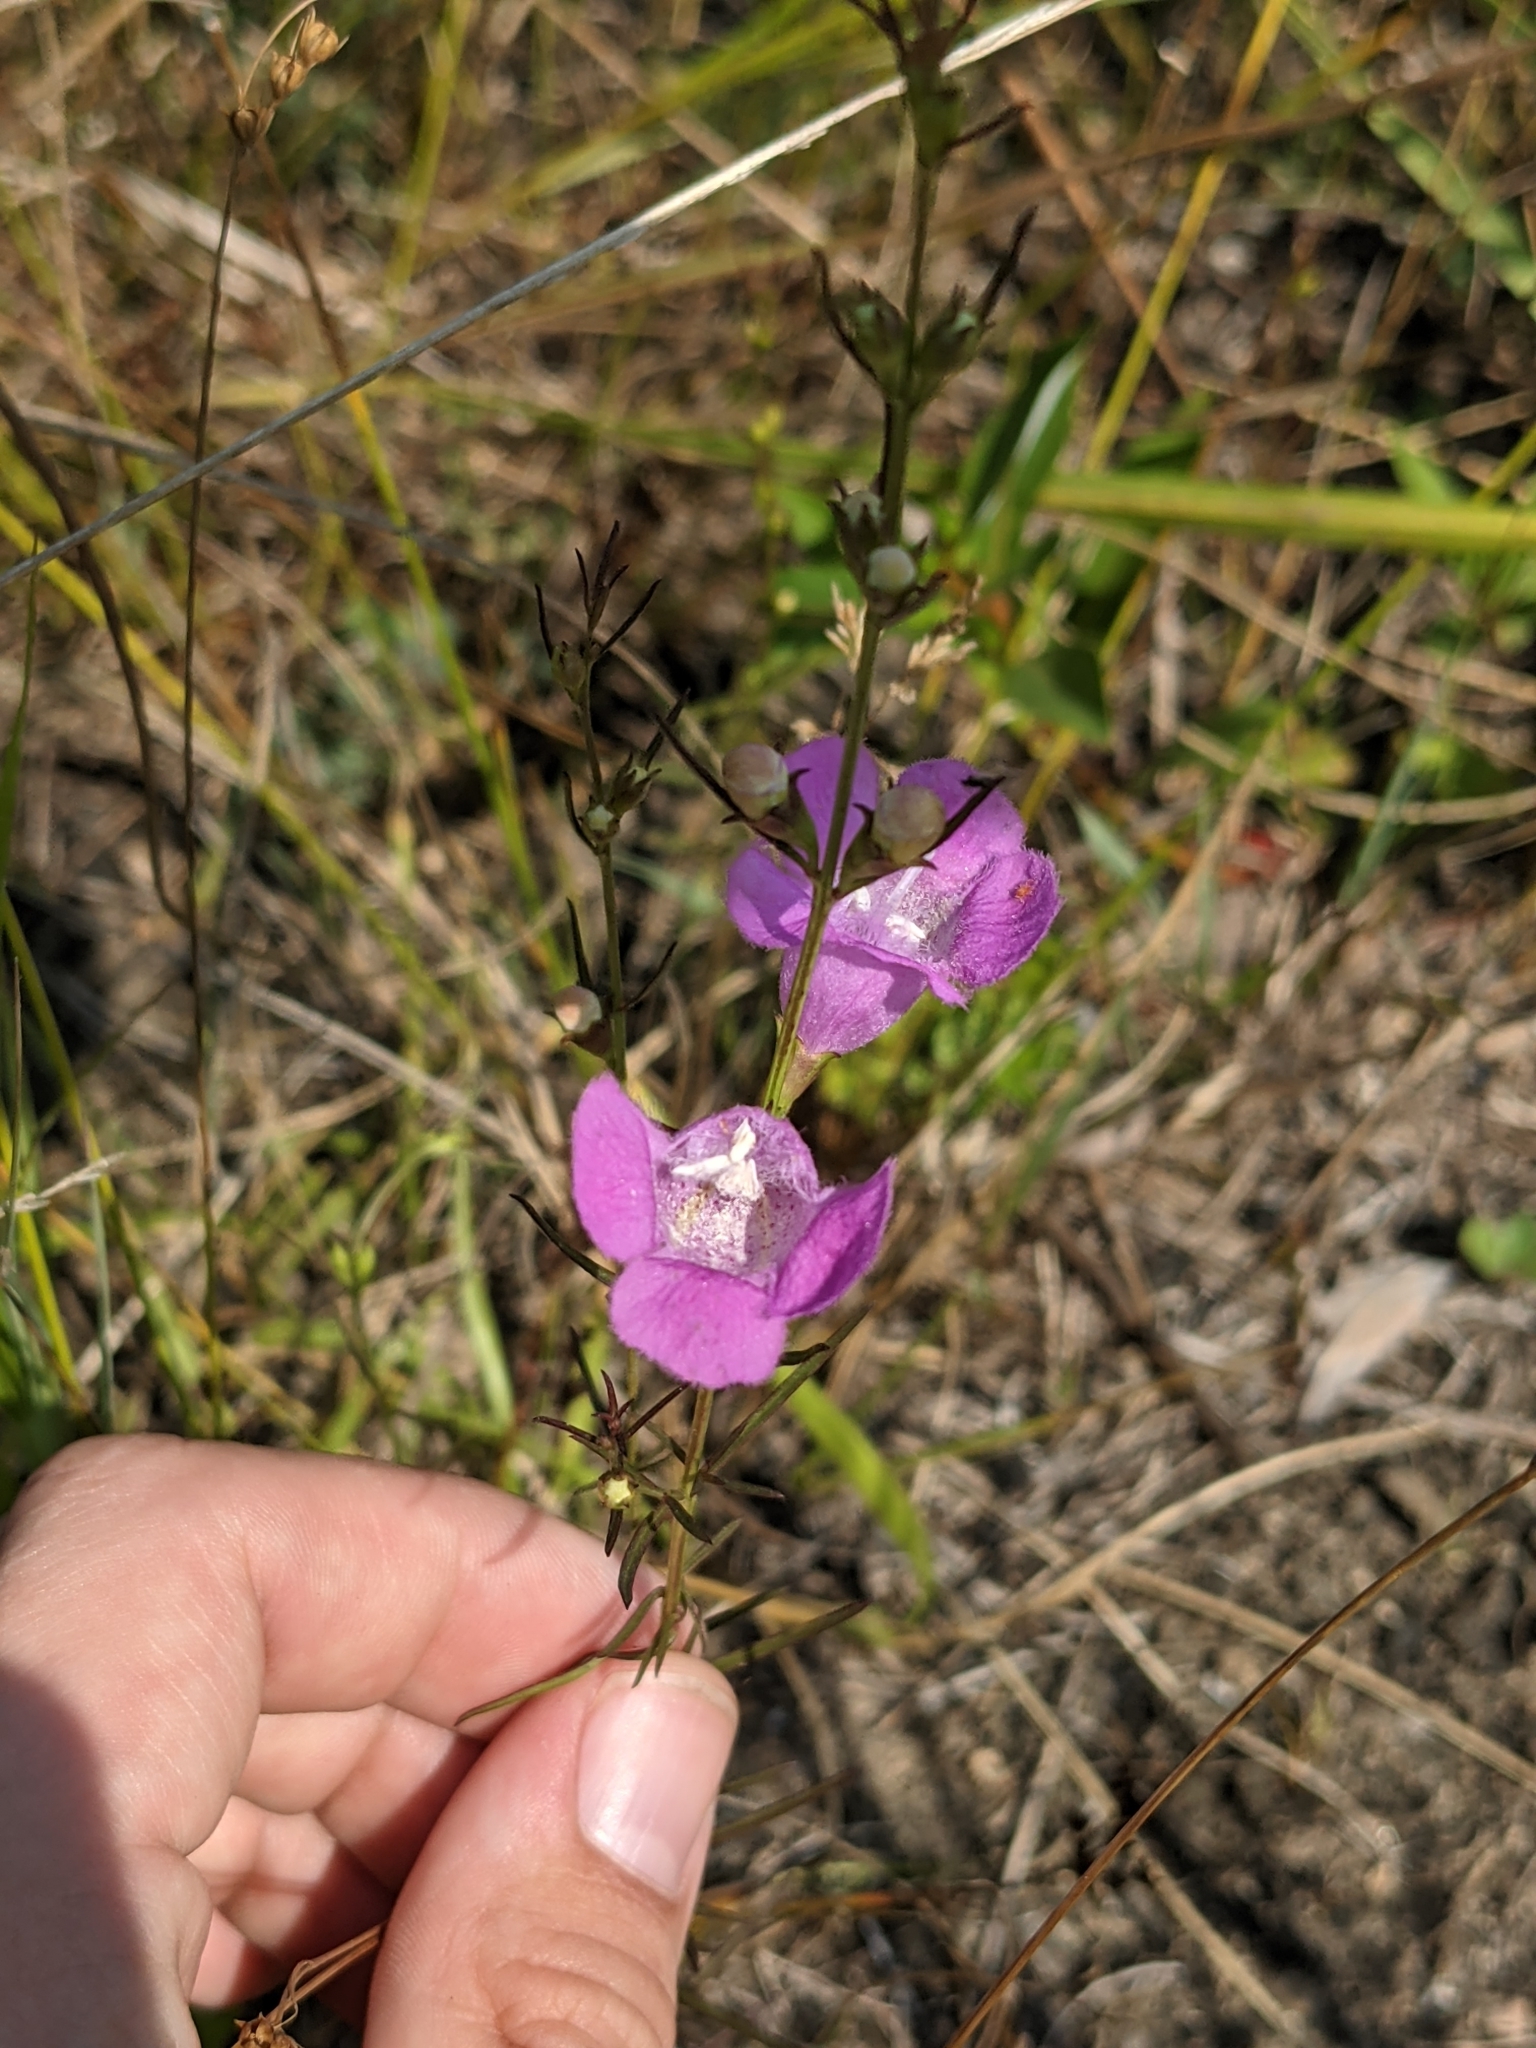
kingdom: Plantae
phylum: Tracheophyta
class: Magnoliopsida
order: Lamiales
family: Orobanchaceae
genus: Agalinis
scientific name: Agalinis purpurea
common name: Purple false foxglove
